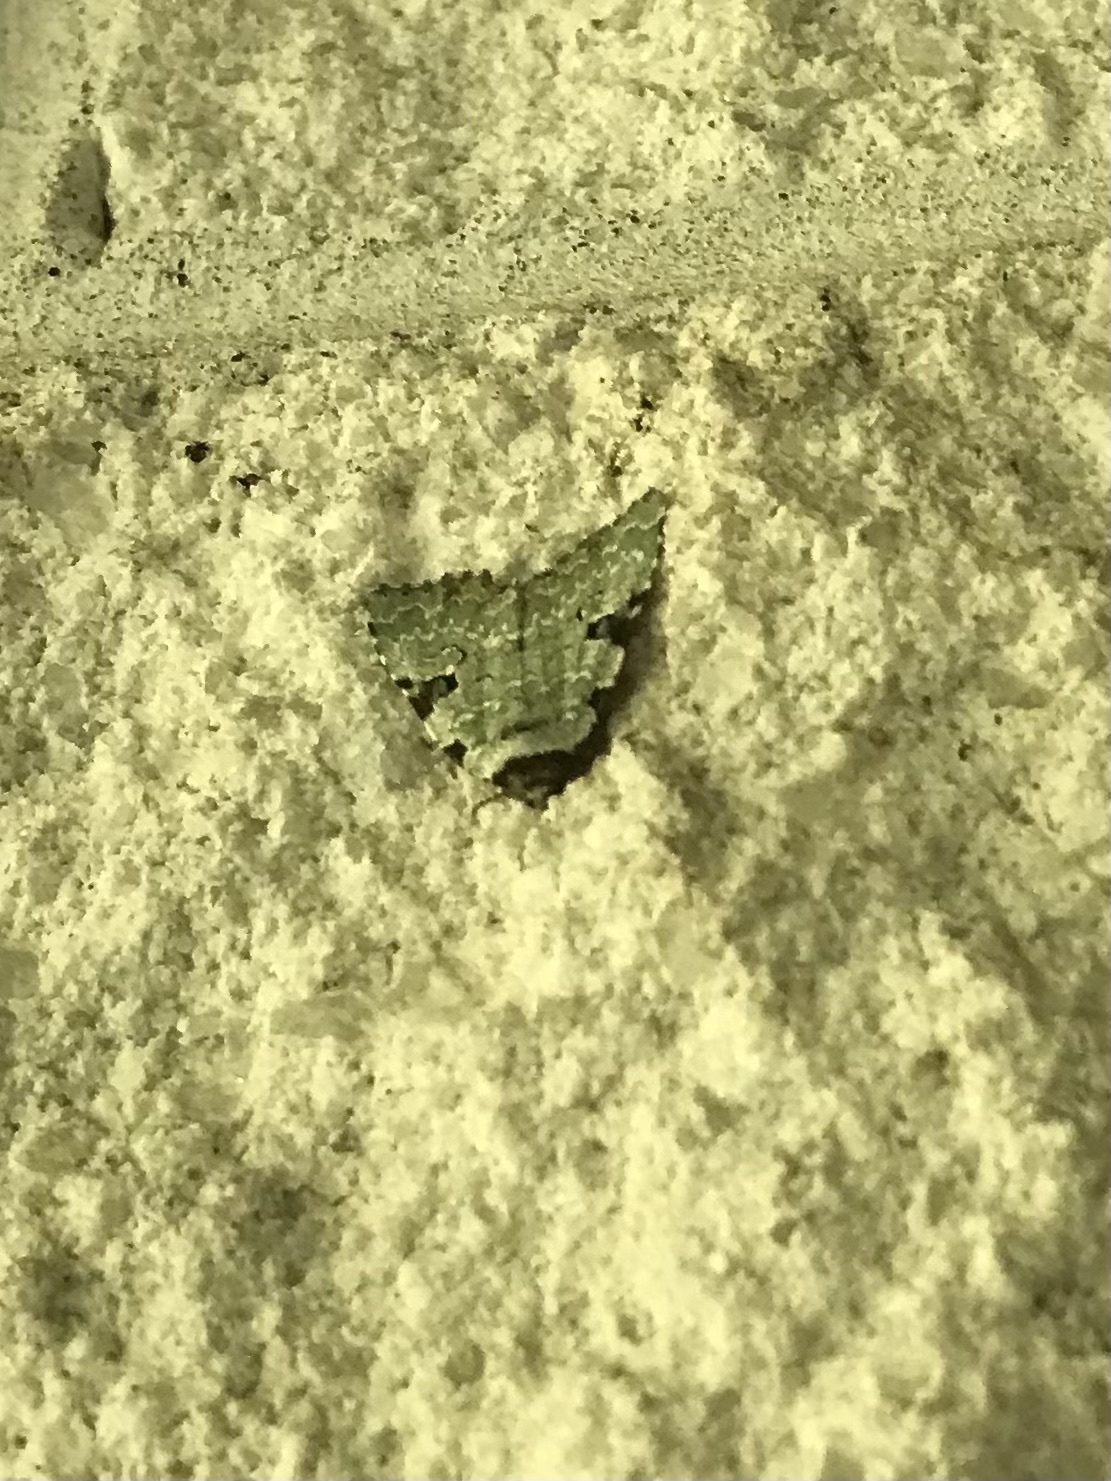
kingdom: Animalia
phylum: Arthropoda
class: Insecta
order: Lepidoptera
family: Noctuidae
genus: Leuconycta
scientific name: Leuconycta diphteroides
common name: Green leuconycta moth
